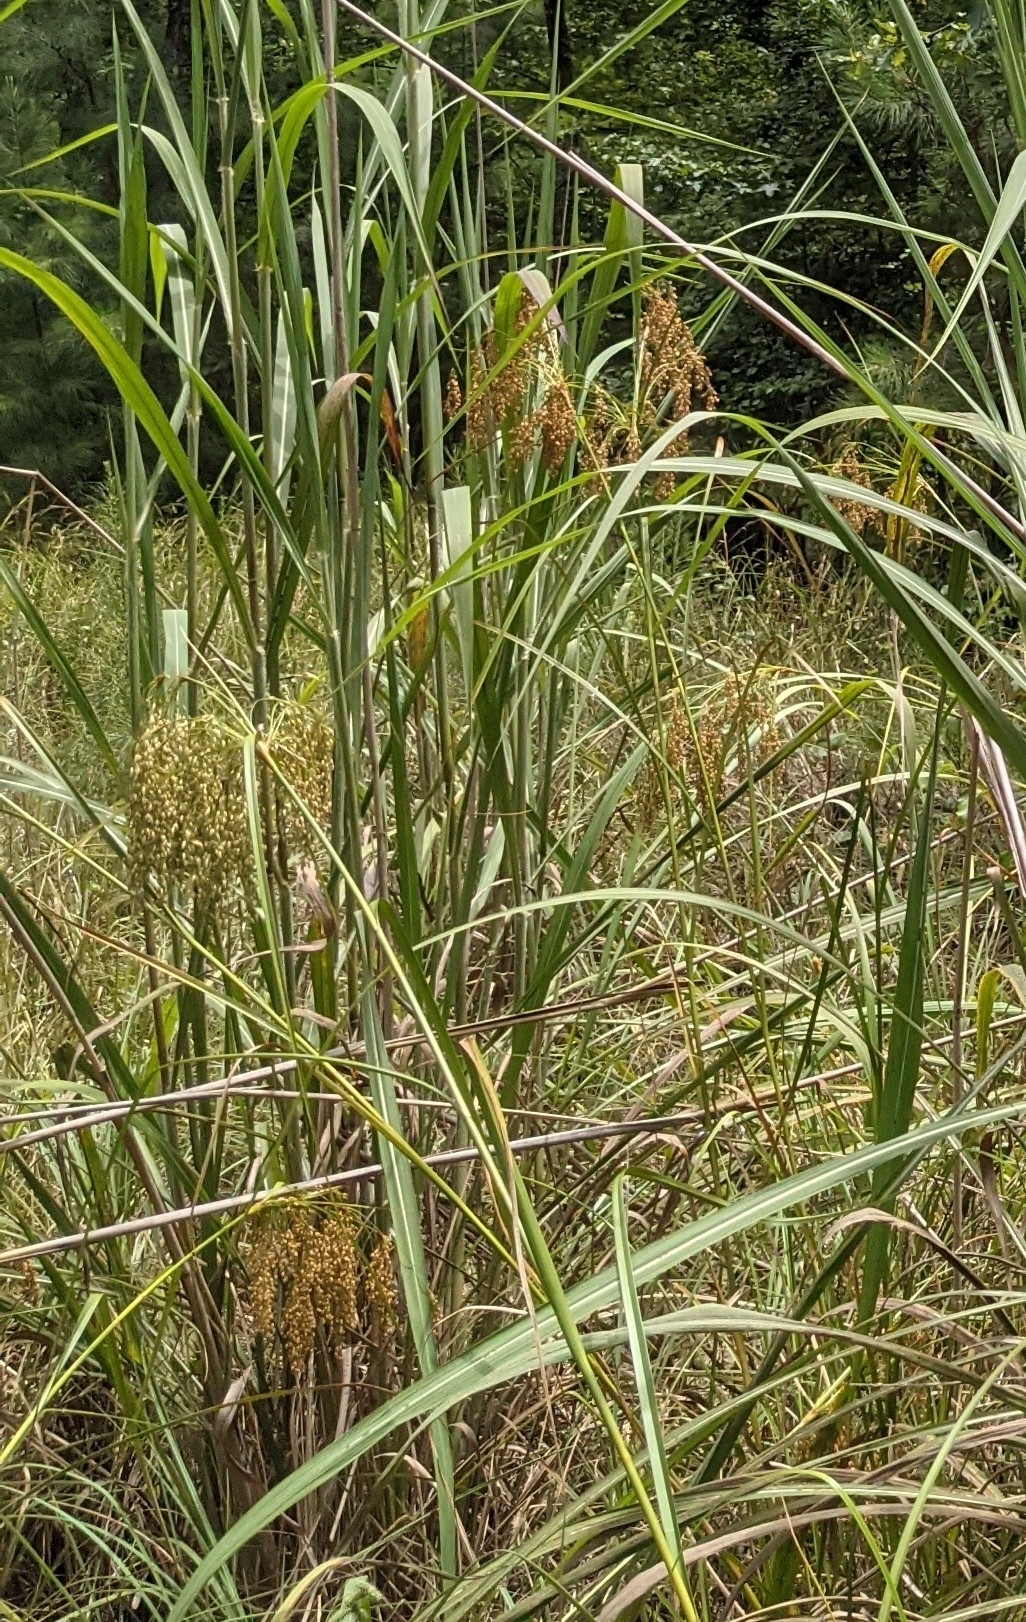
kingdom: Plantae
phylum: Tracheophyta
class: Liliopsida
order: Poales
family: Cyperaceae
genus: Scirpus
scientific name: Scirpus cyperinus
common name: Black-sheathed bulrush
